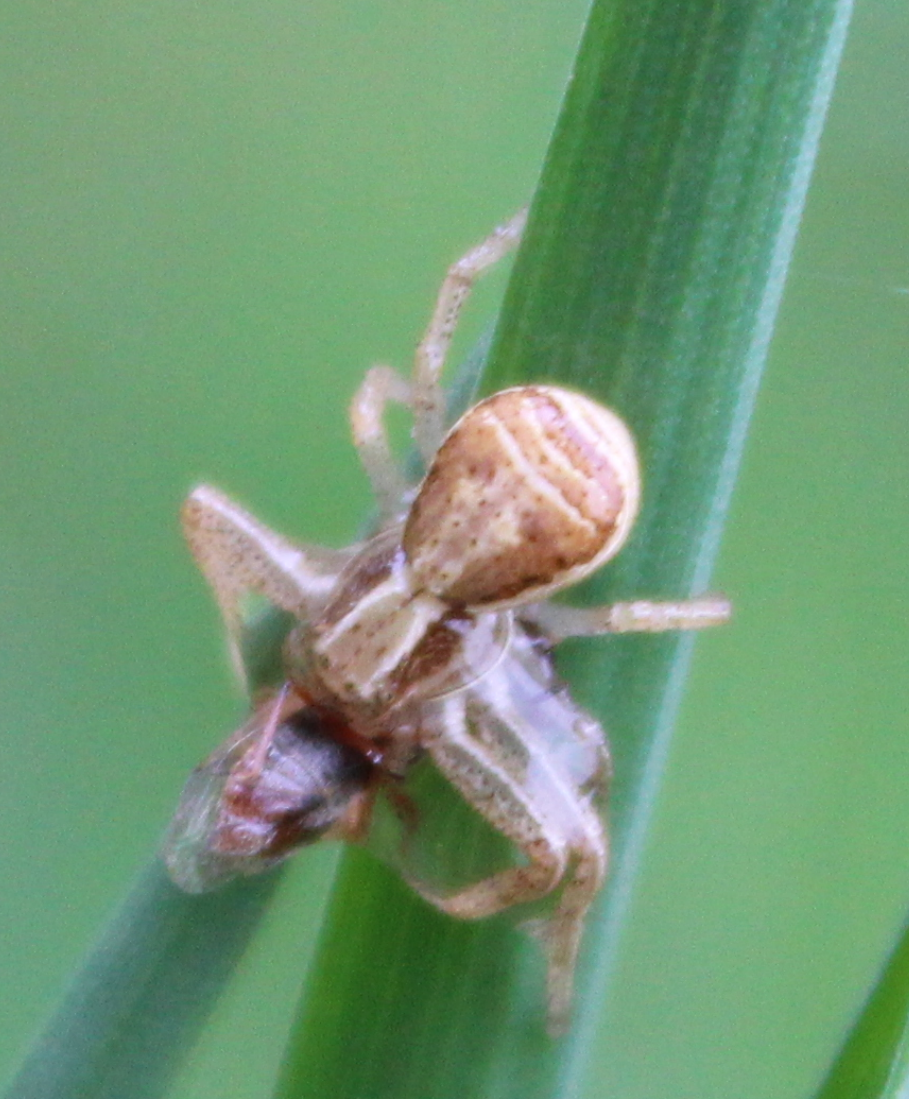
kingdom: Animalia
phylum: Arthropoda
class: Arachnida
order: Araneae
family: Thomisidae
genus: Xysticus
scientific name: Xysticus ulmi
